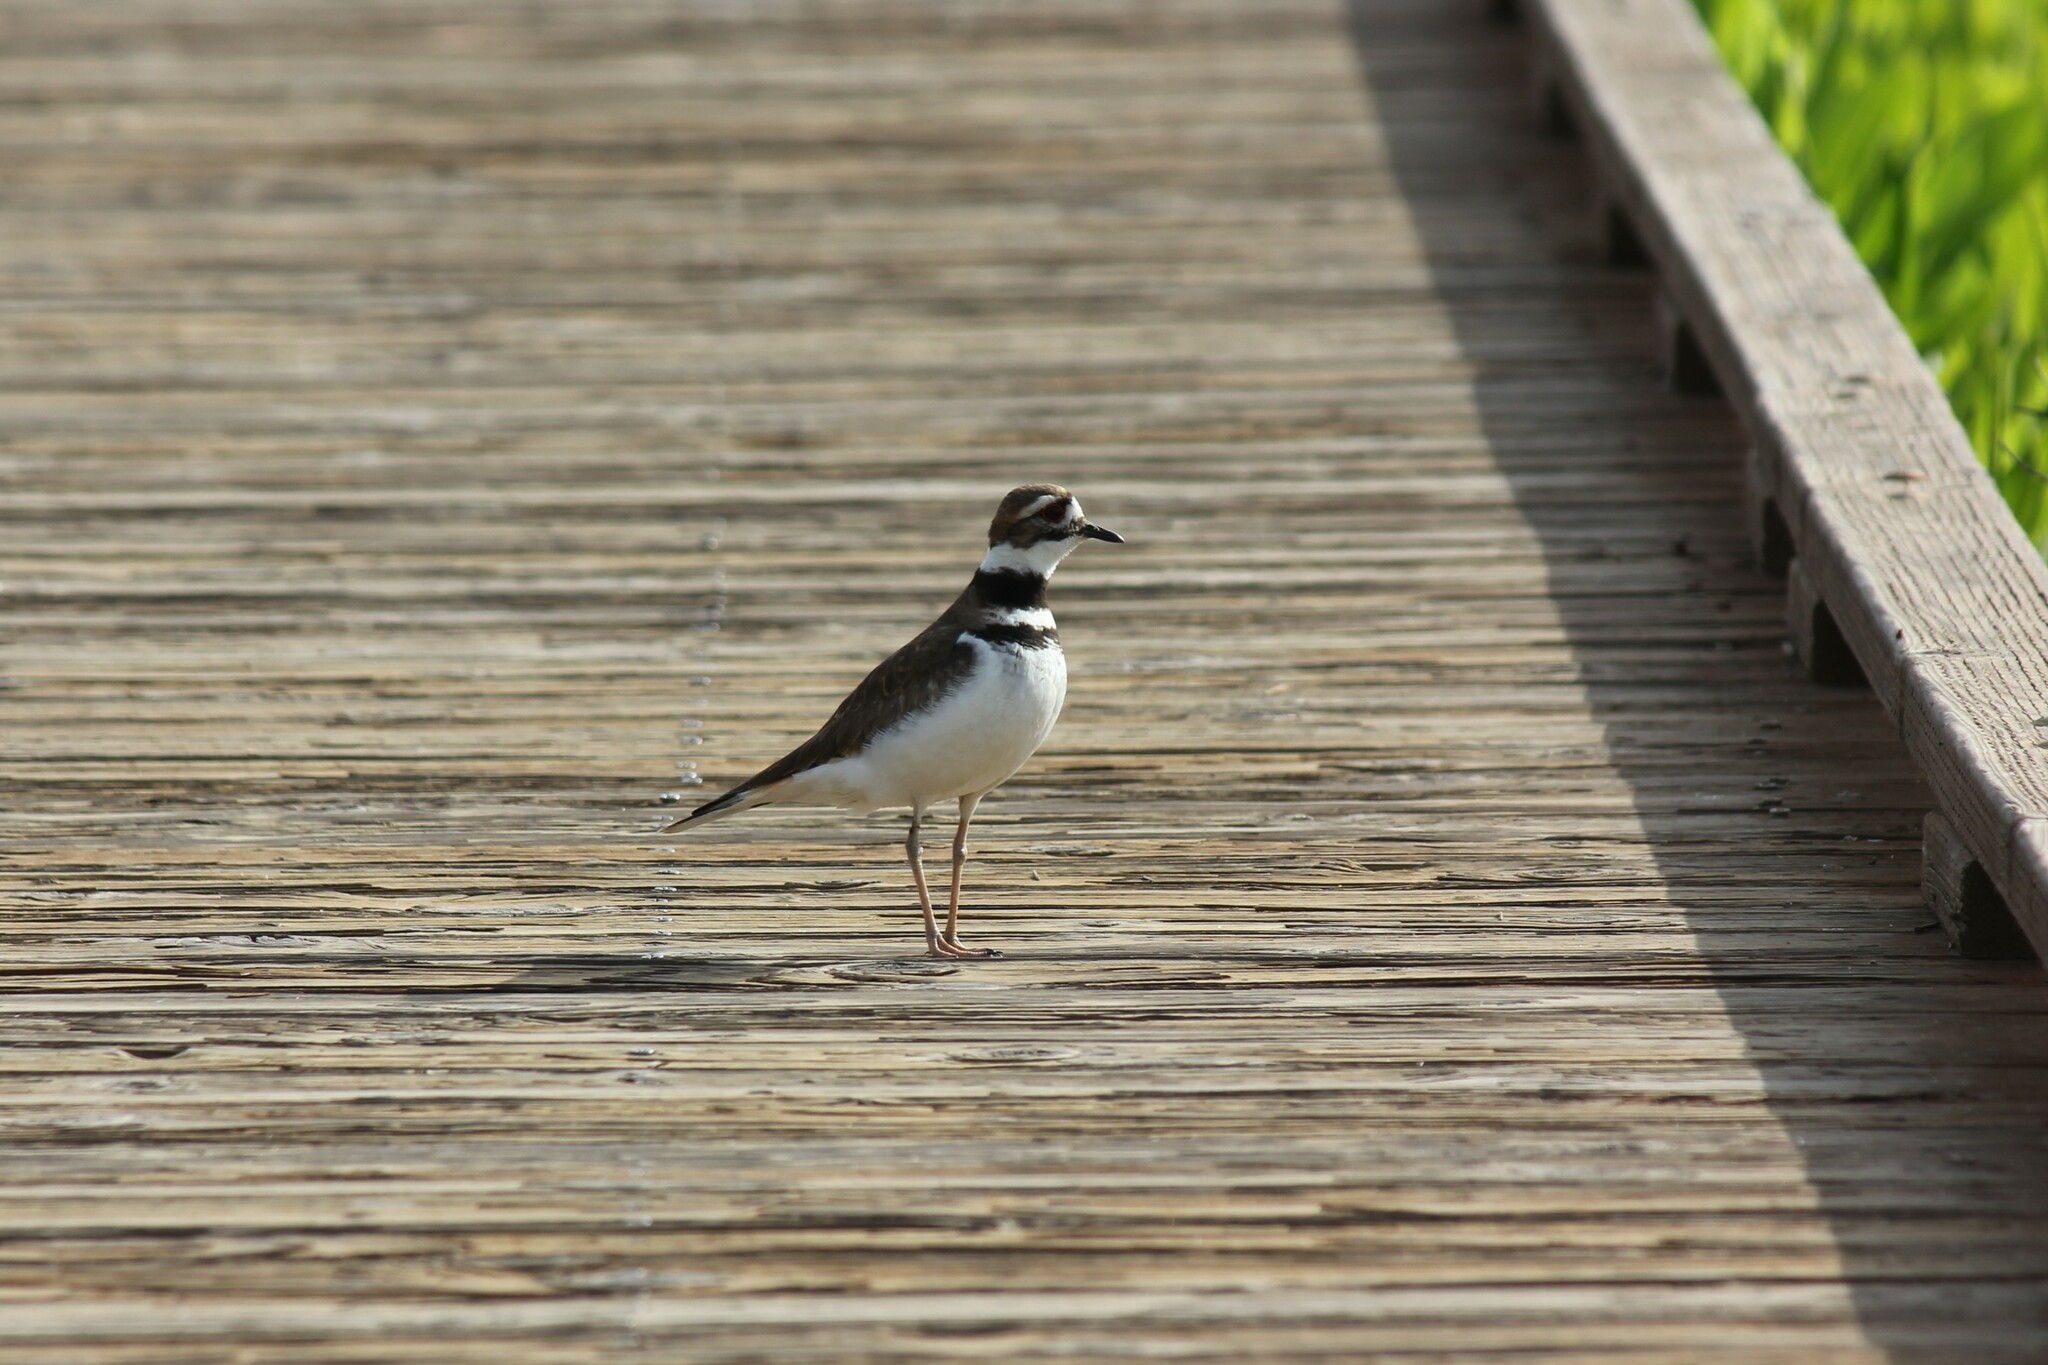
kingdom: Animalia
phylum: Chordata
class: Aves
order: Charadriiformes
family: Charadriidae
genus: Charadrius
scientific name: Charadrius vociferus
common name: Killdeer
